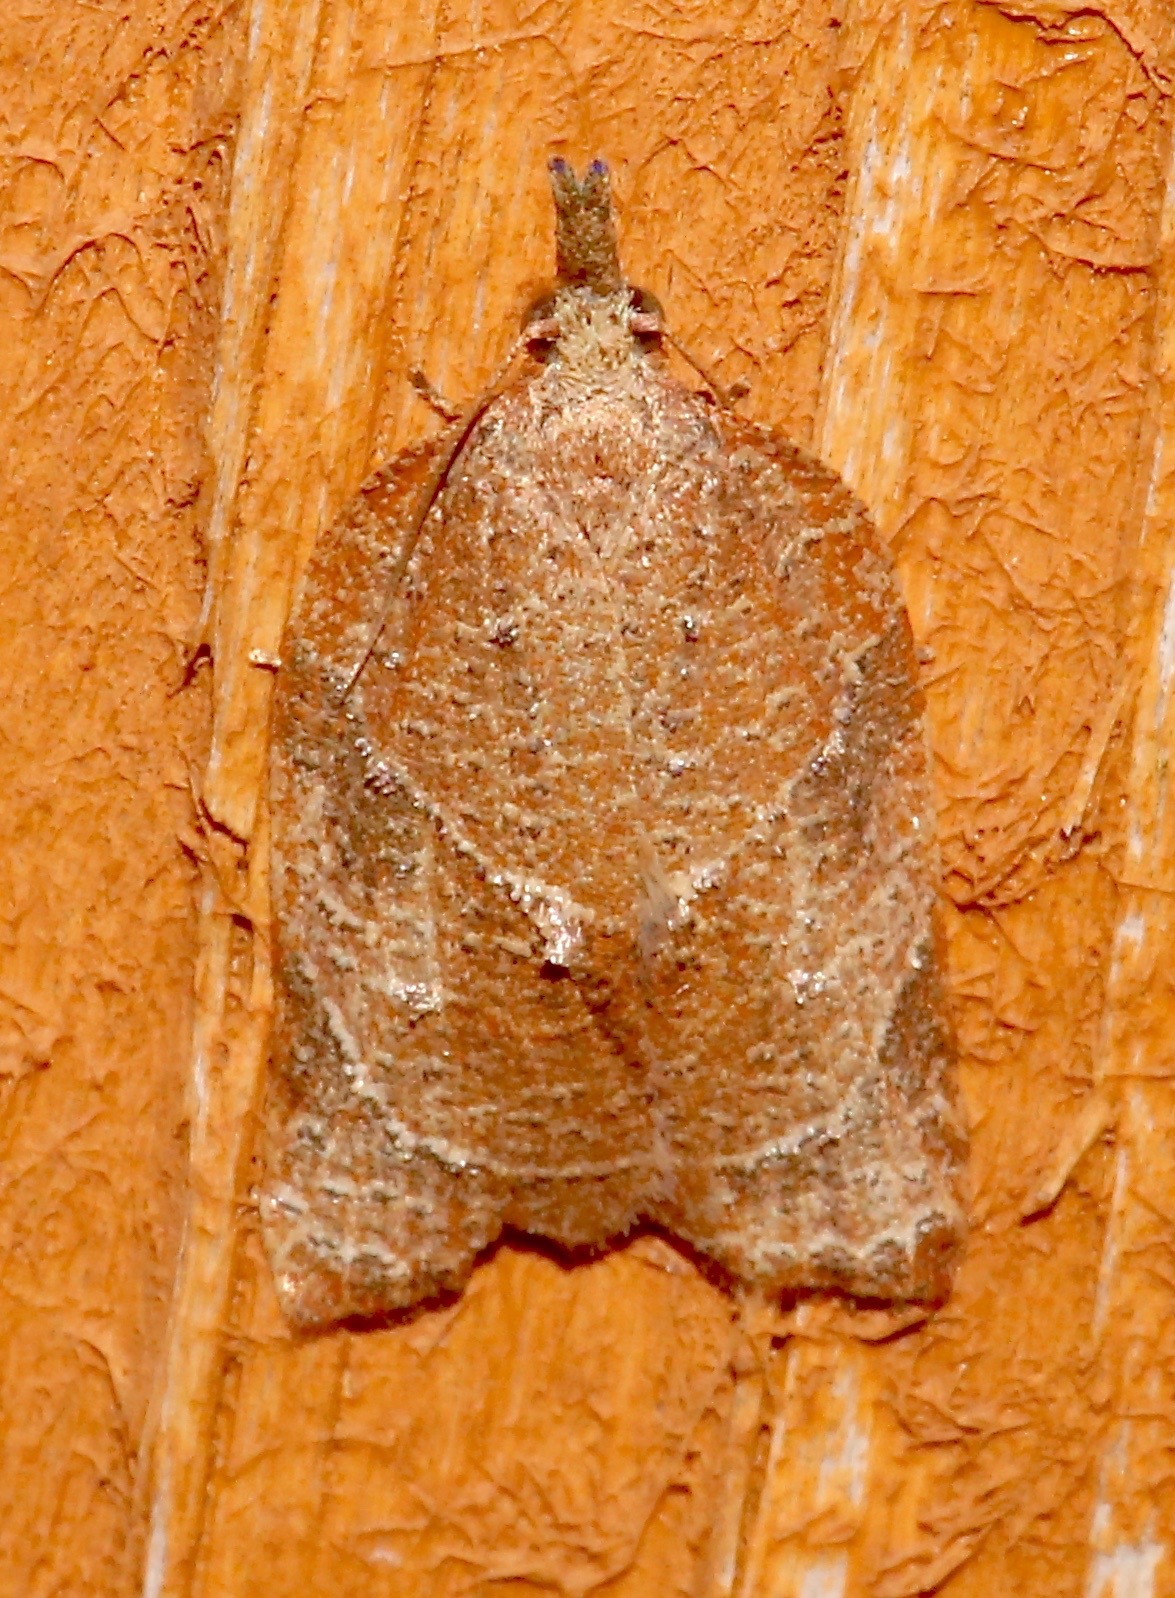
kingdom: Animalia
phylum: Arthropoda
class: Insecta
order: Lepidoptera
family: Tortricidae
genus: Platynota
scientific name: Platynota rostrana
